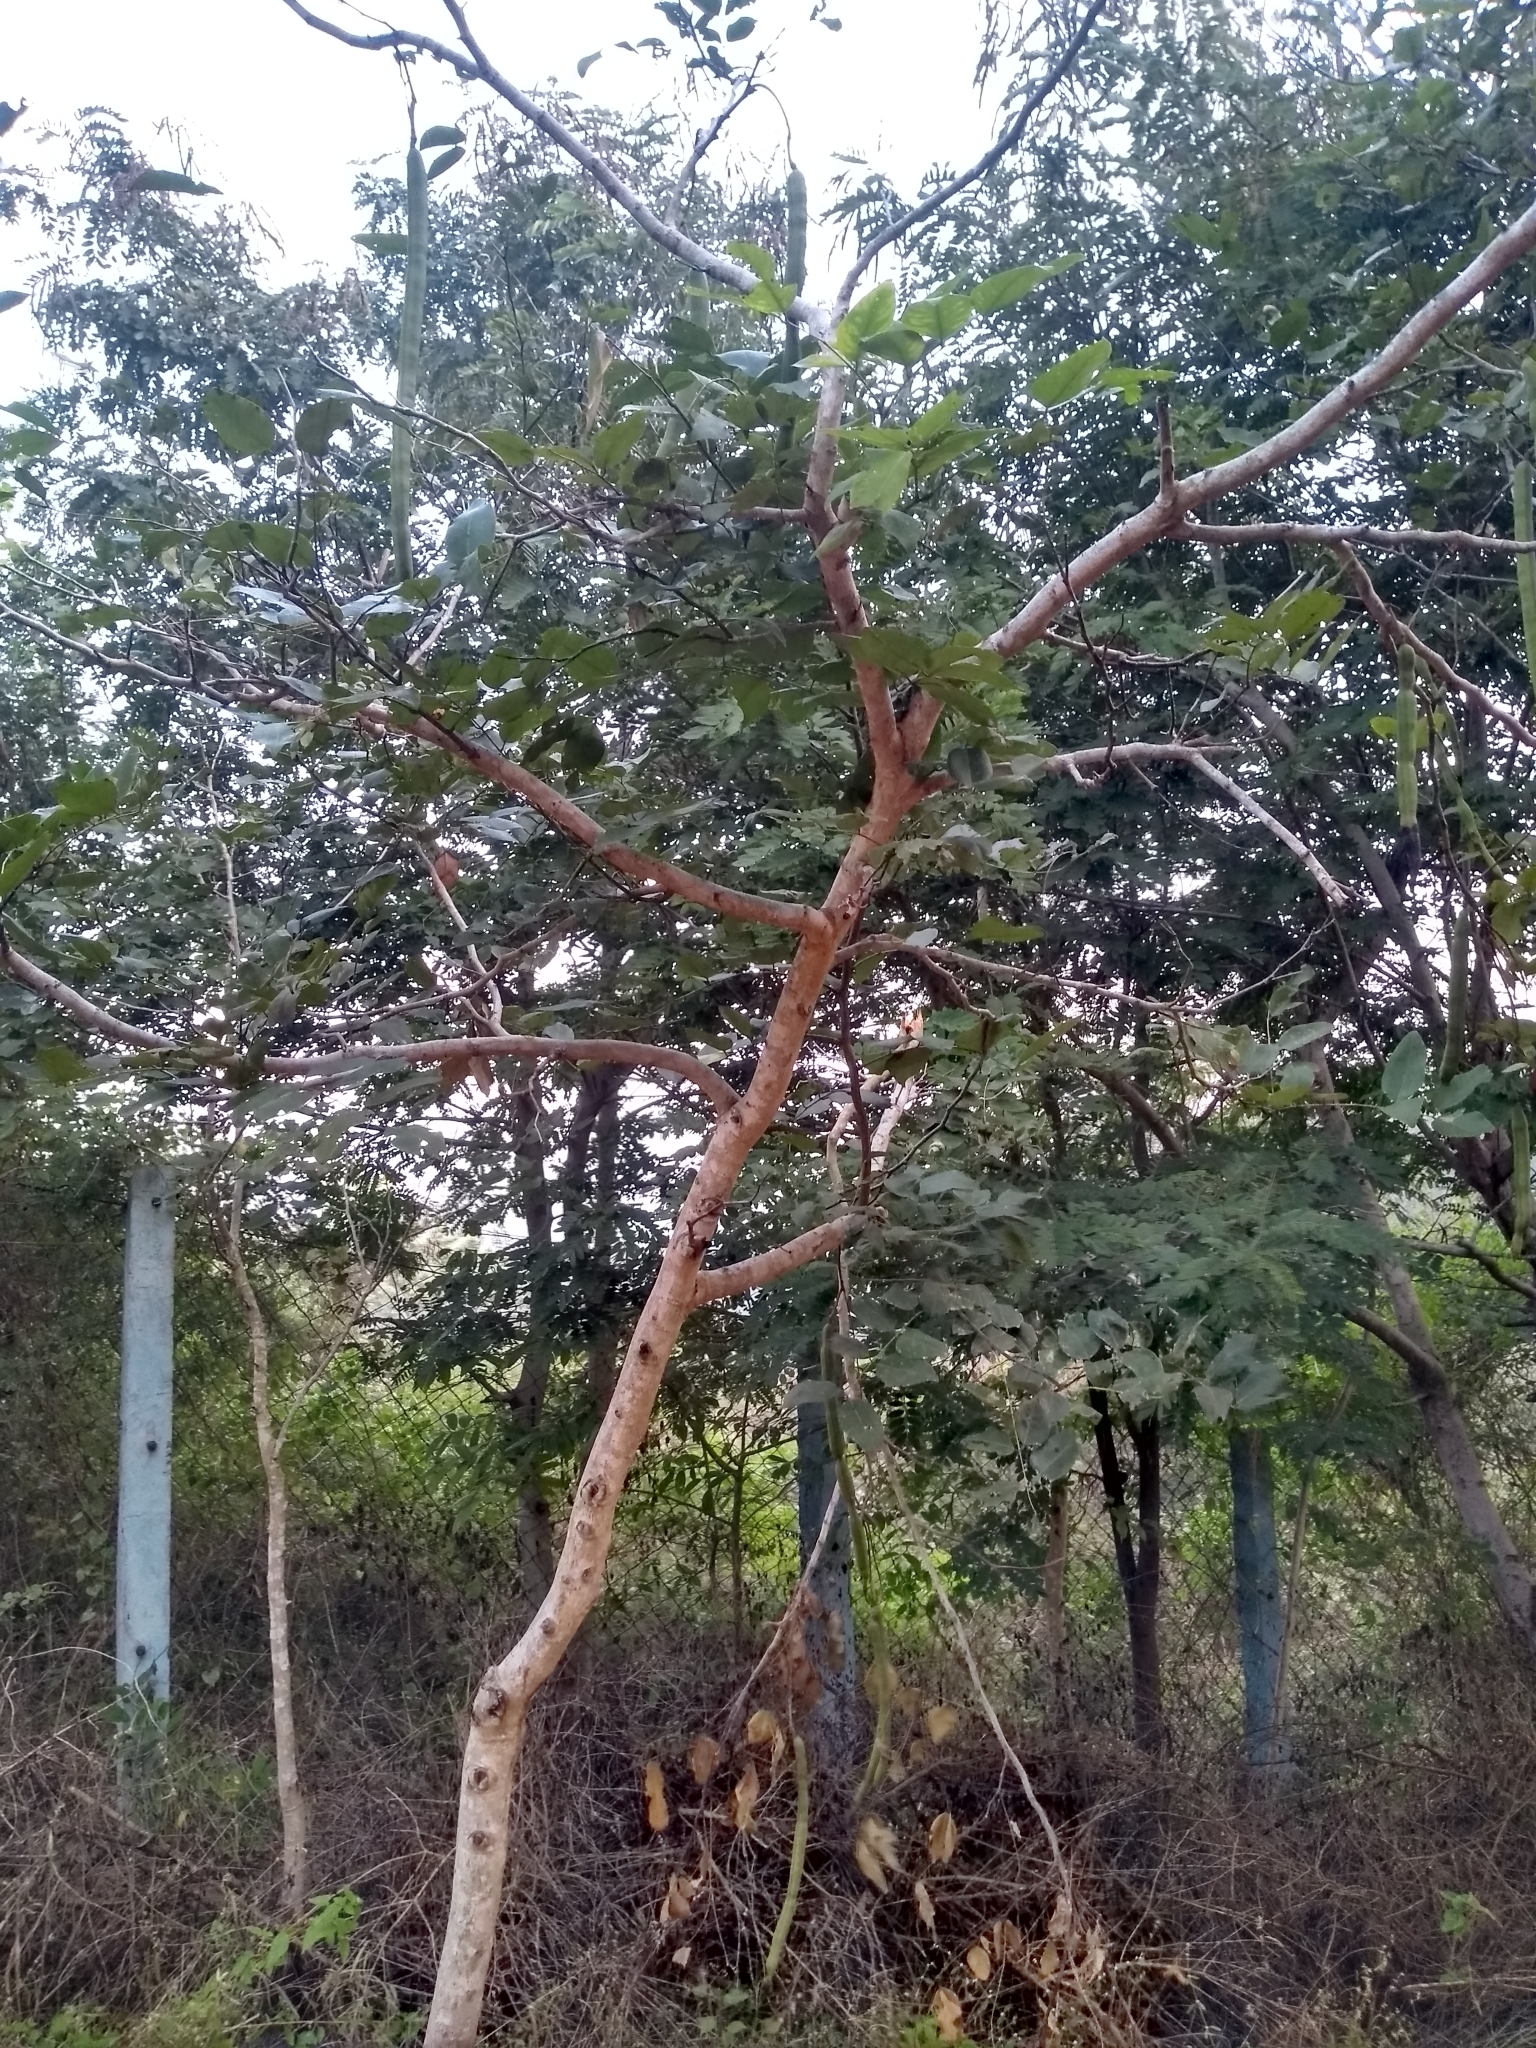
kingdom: Plantae
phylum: Tracheophyta
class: Magnoliopsida
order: Fabales
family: Fabaceae
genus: Cassia
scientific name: Cassia fistula
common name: Golden shower
